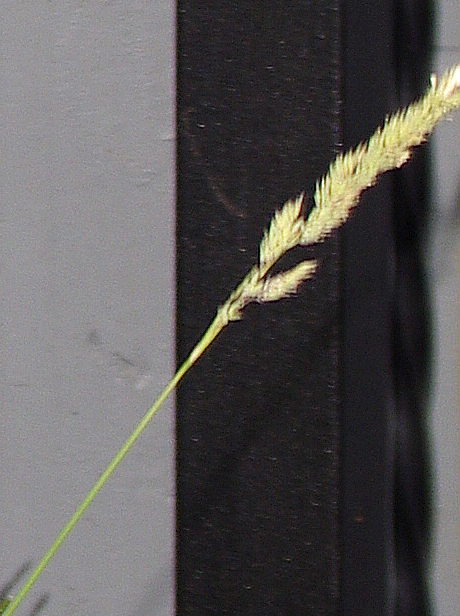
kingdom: Plantae
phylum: Tracheophyta
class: Liliopsida
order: Poales
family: Poaceae
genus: Calamagrostis
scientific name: Calamagrostis epigejos
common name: Wood small-reed
